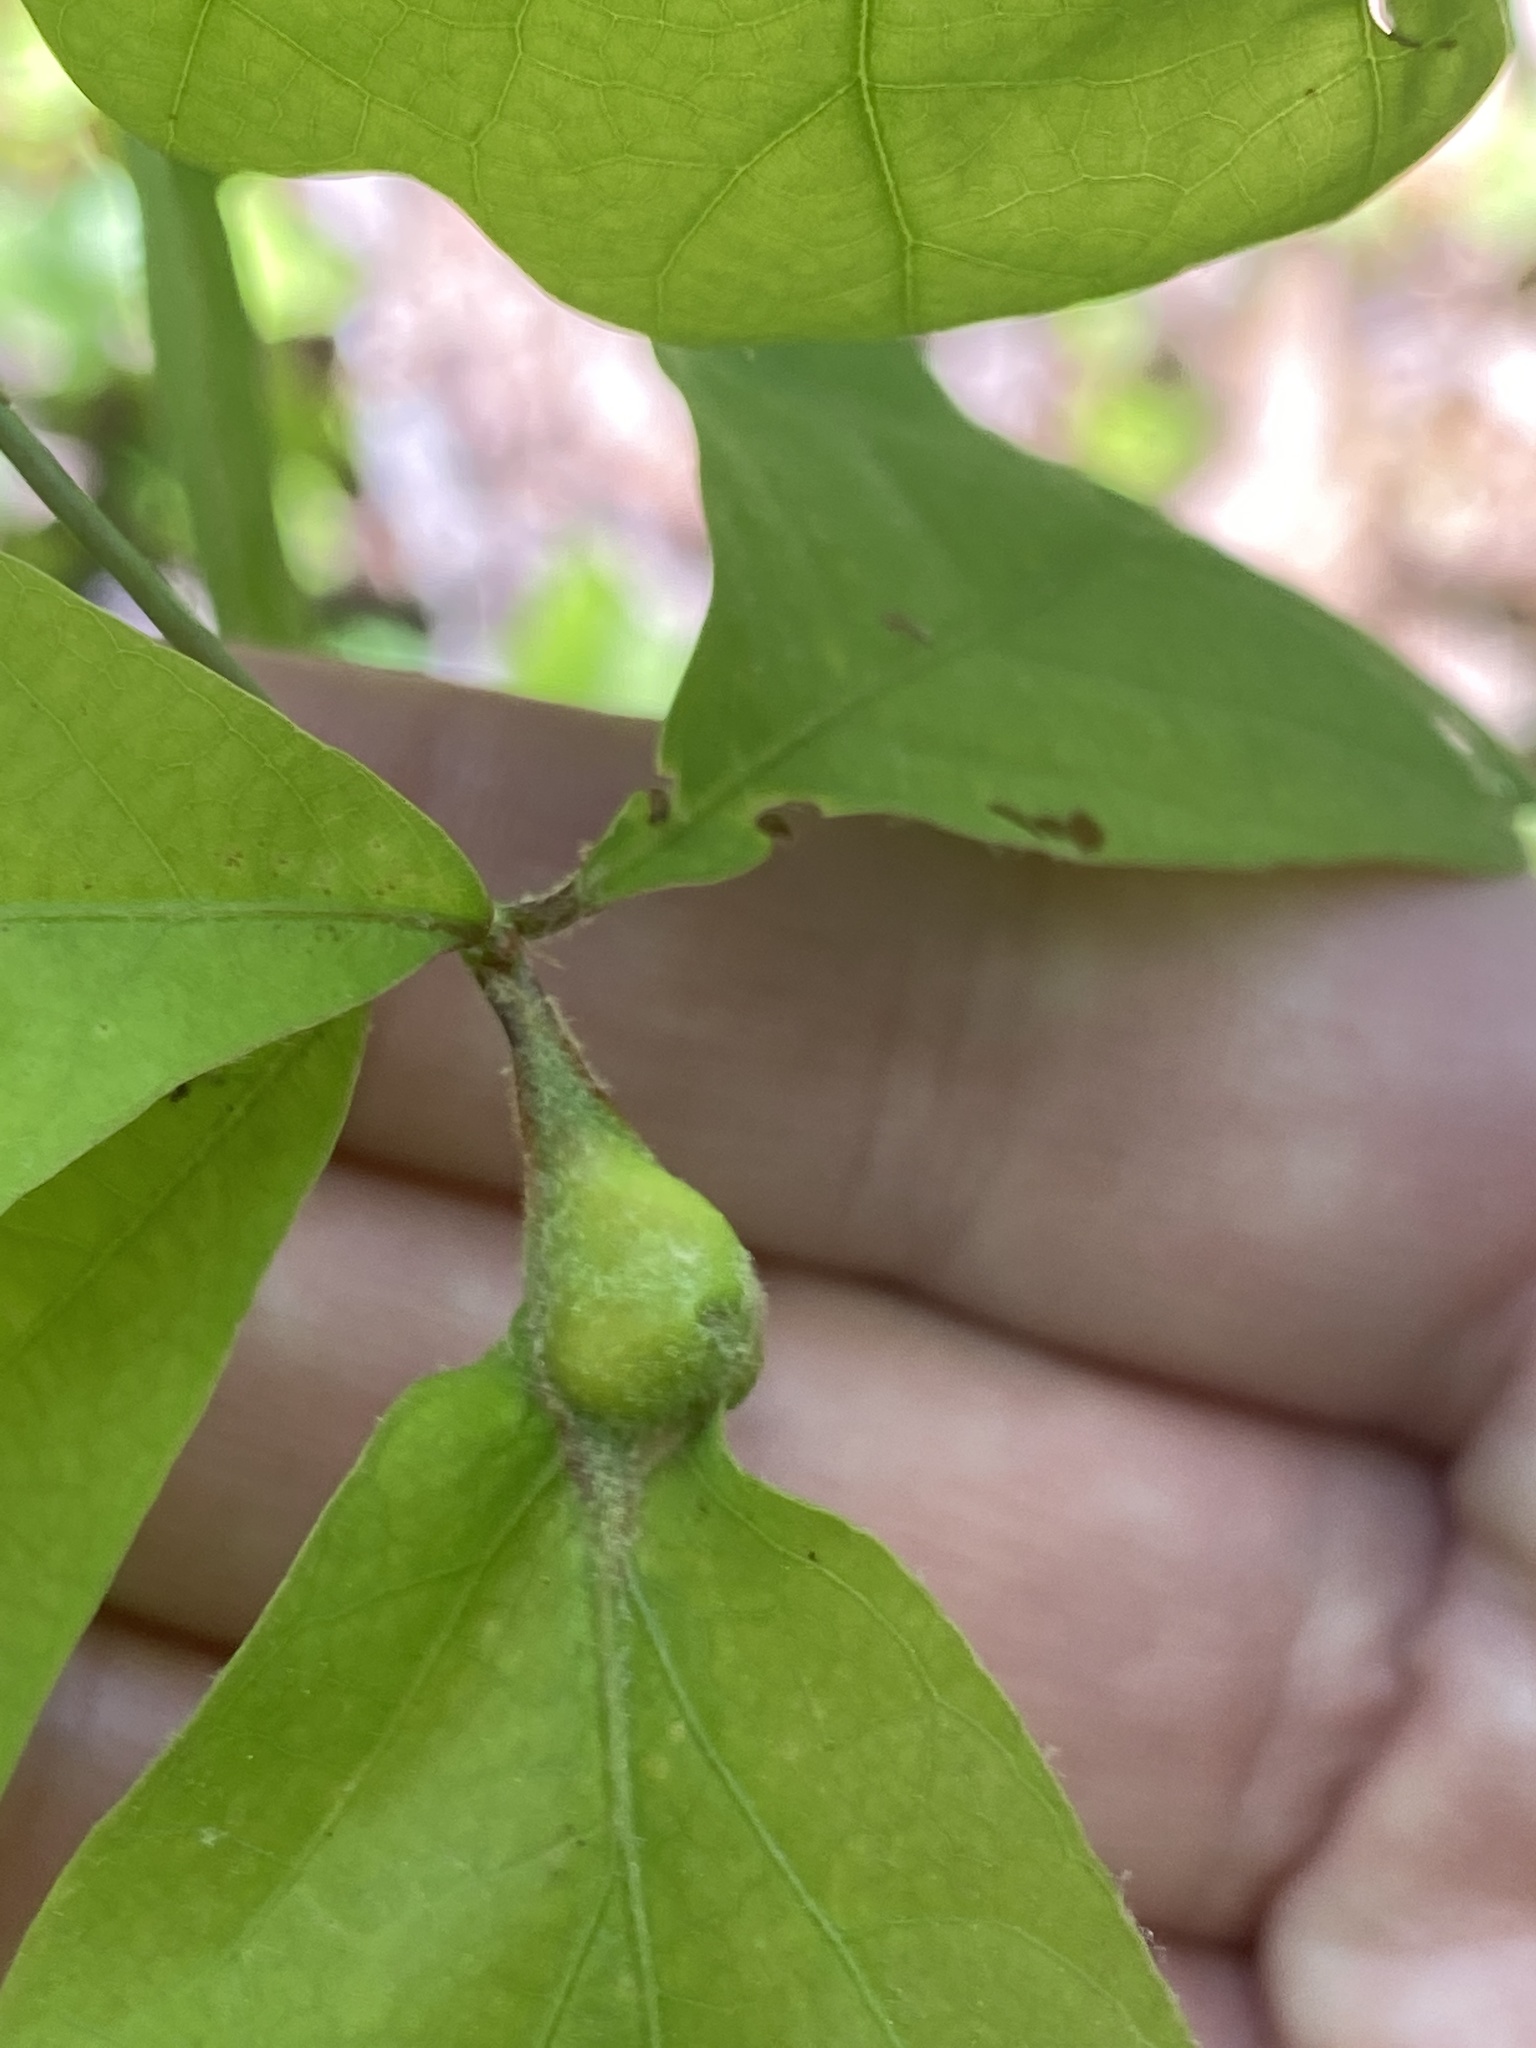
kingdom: Animalia
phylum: Arthropoda
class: Insecta
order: Hymenoptera
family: Cynipidae
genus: Andricus
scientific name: Andricus
